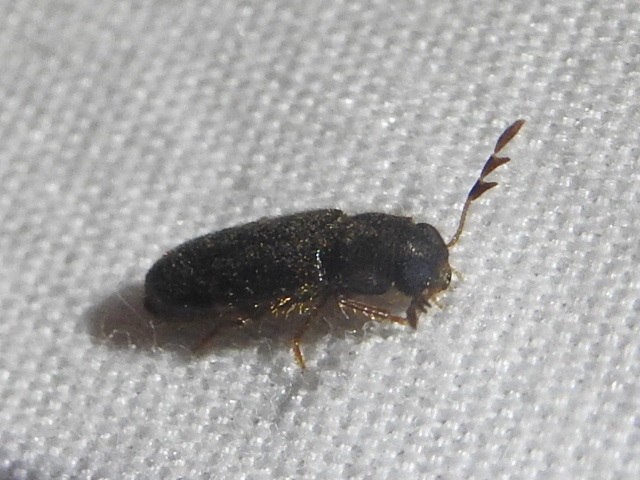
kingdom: Animalia
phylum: Arthropoda
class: Insecta
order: Coleoptera
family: Cleridae
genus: Neorthopleura
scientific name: Neorthopleura texana
